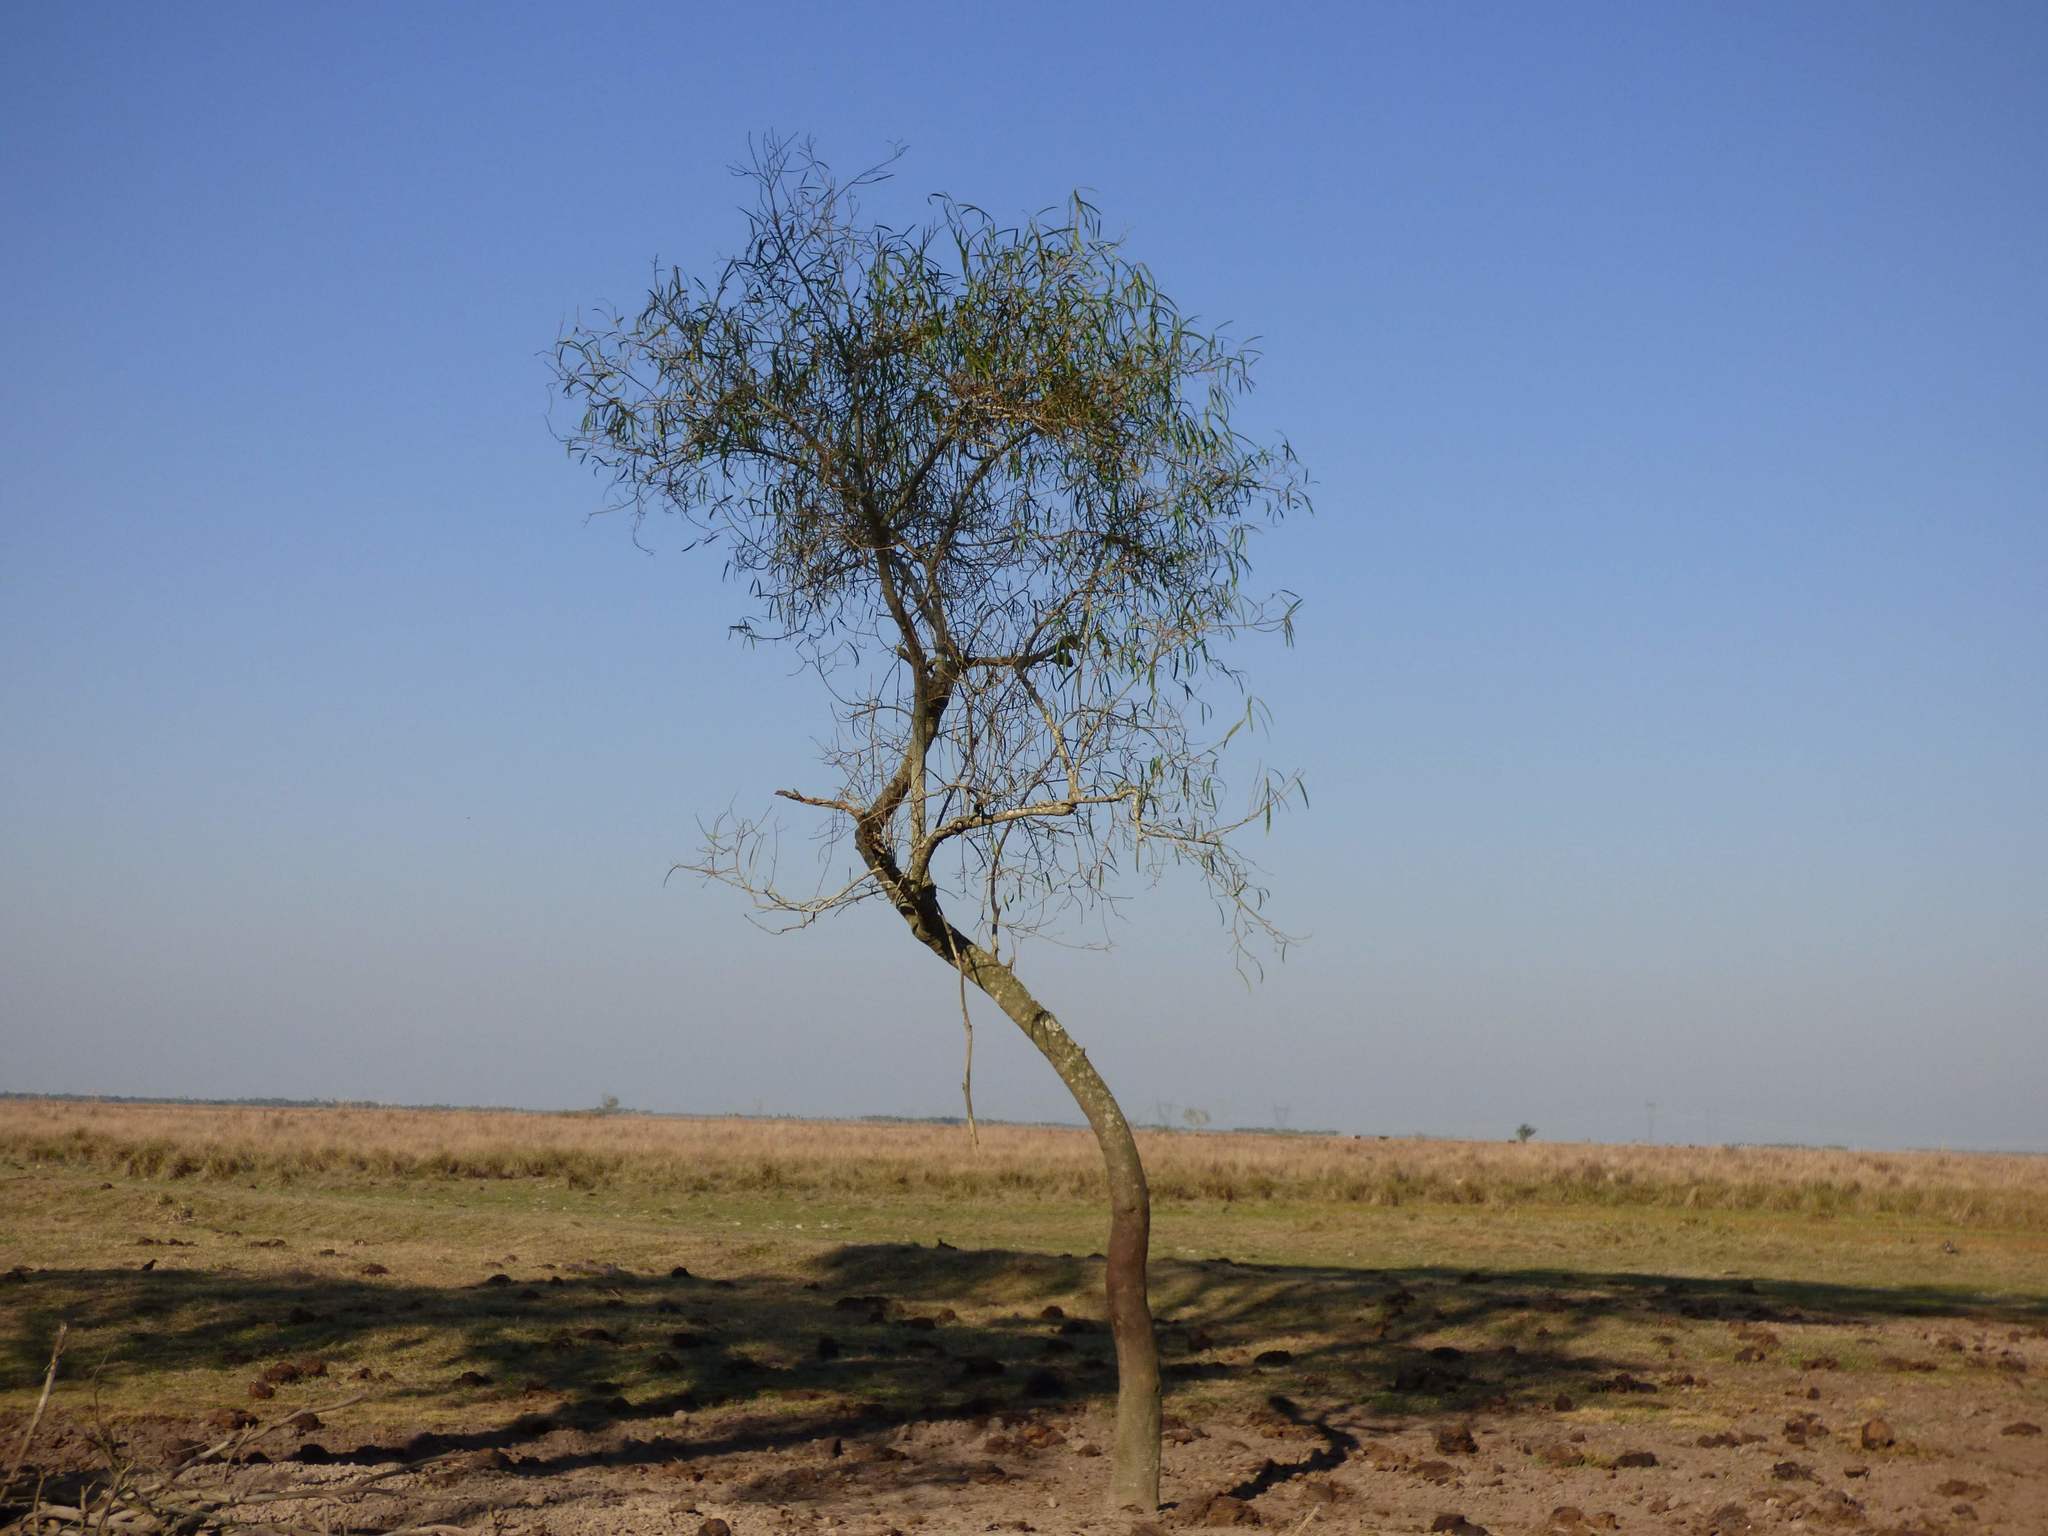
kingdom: Plantae
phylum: Tracheophyta
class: Magnoliopsida
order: Malpighiales
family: Euphorbiaceae
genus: Sapium
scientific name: Sapium haematospermum
